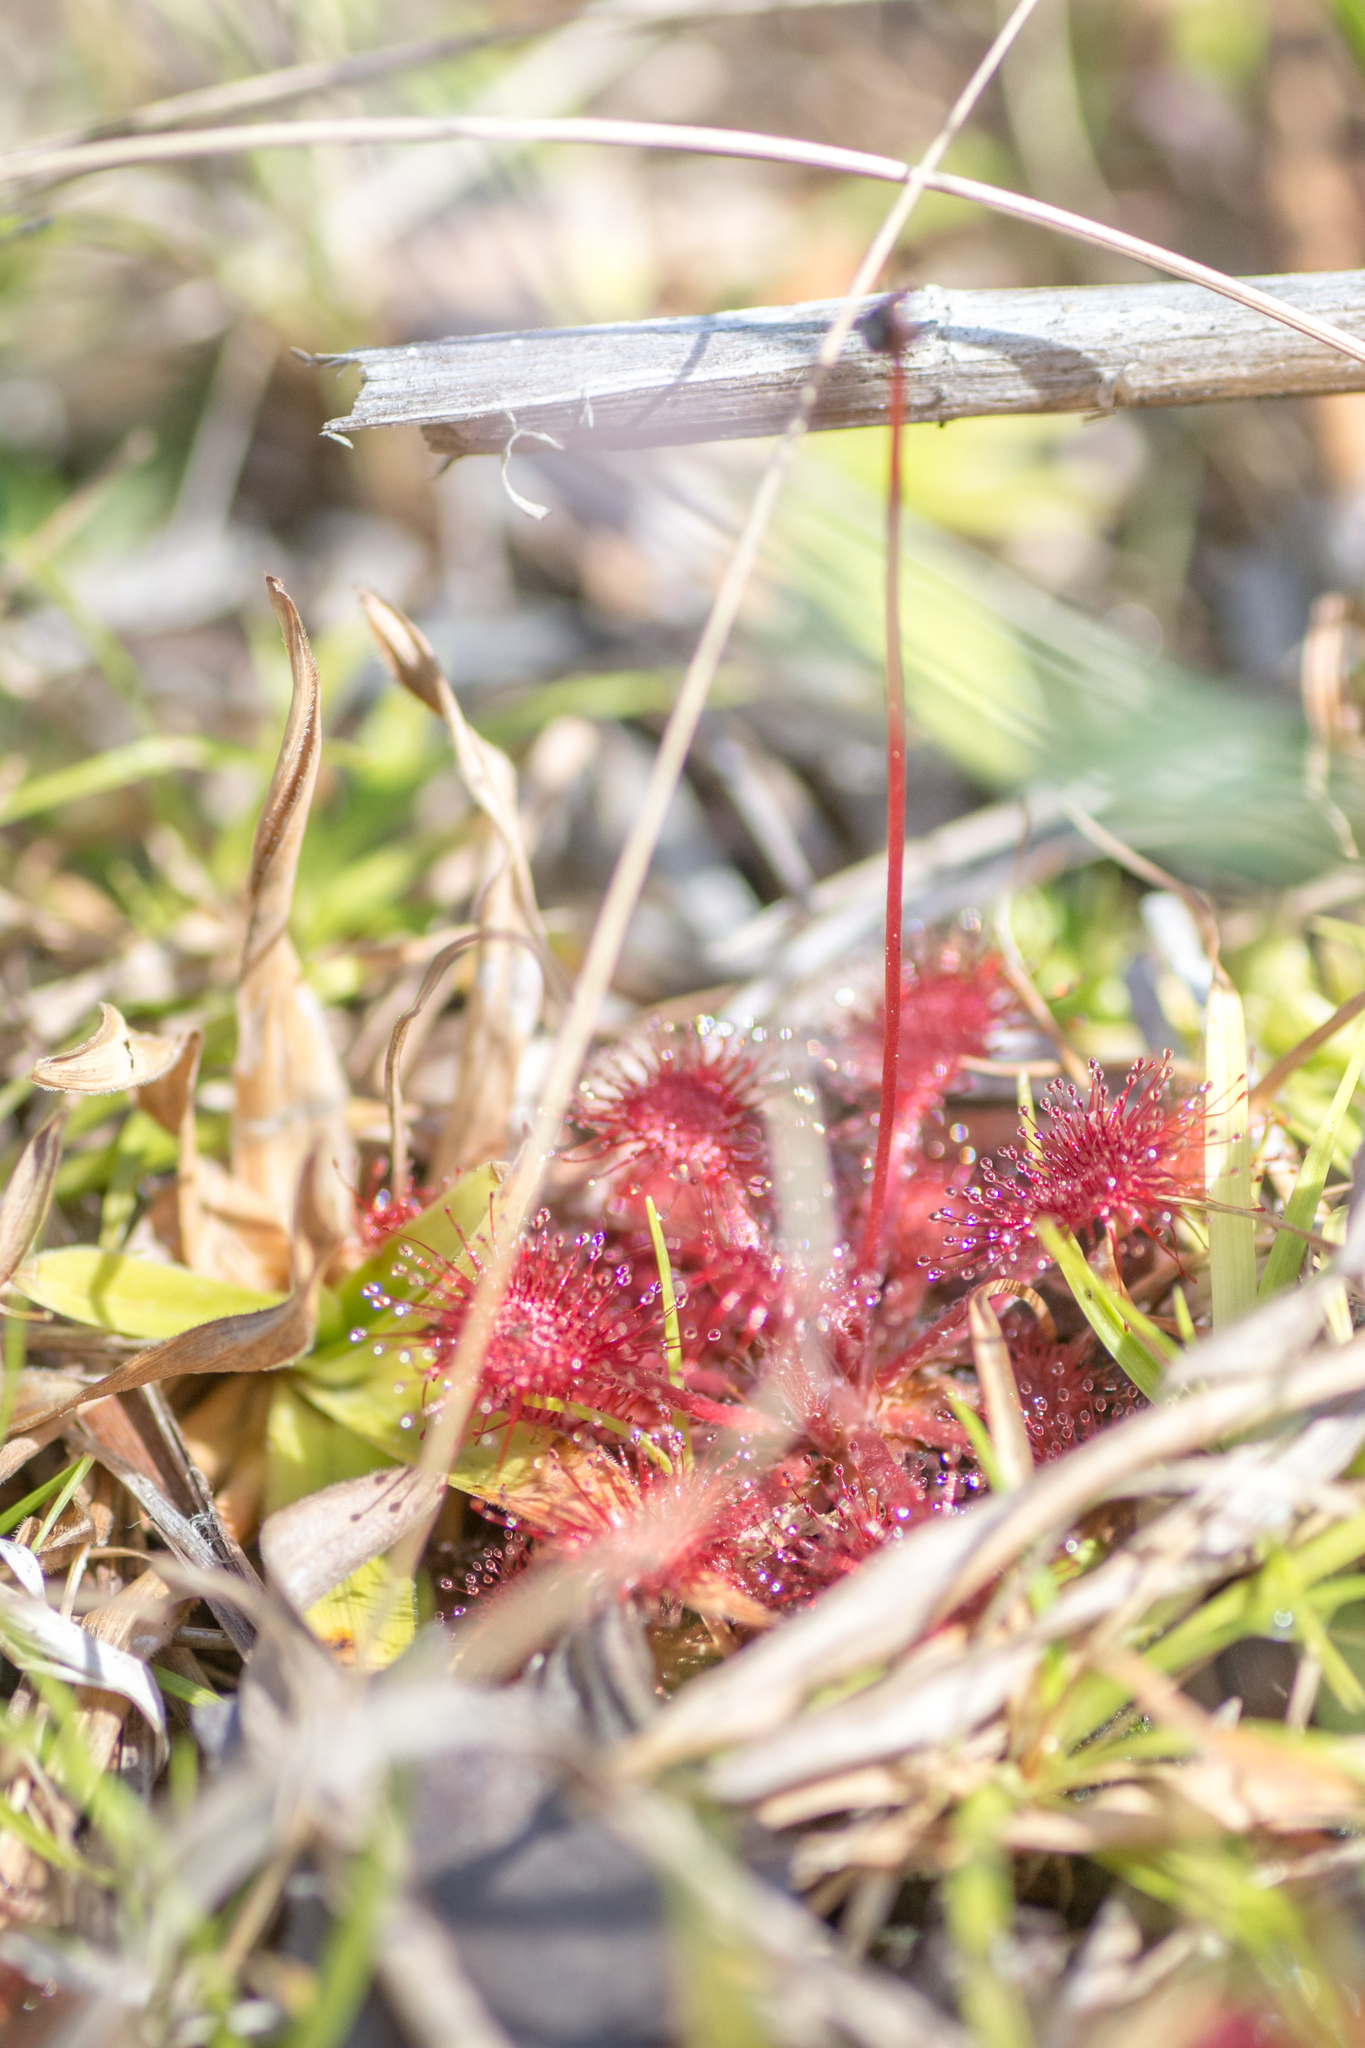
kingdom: Plantae
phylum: Tracheophyta
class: Magnoliopsida
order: Caryophyllales
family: Droseraceae
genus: Drosera
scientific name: Drosera capillaris
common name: Pink sundew
